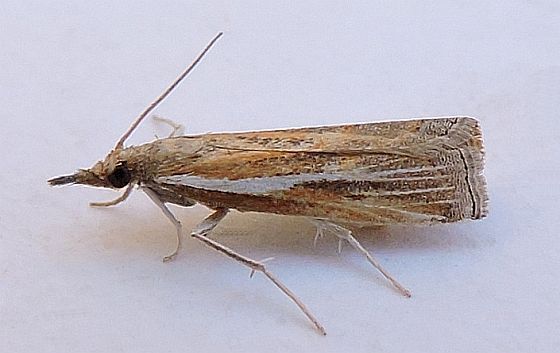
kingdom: Animalia
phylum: Arthropoda
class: Insecta
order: Lepidoptera
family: Crambidae
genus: Fissicrambus
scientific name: Fissicrambus intermedius
